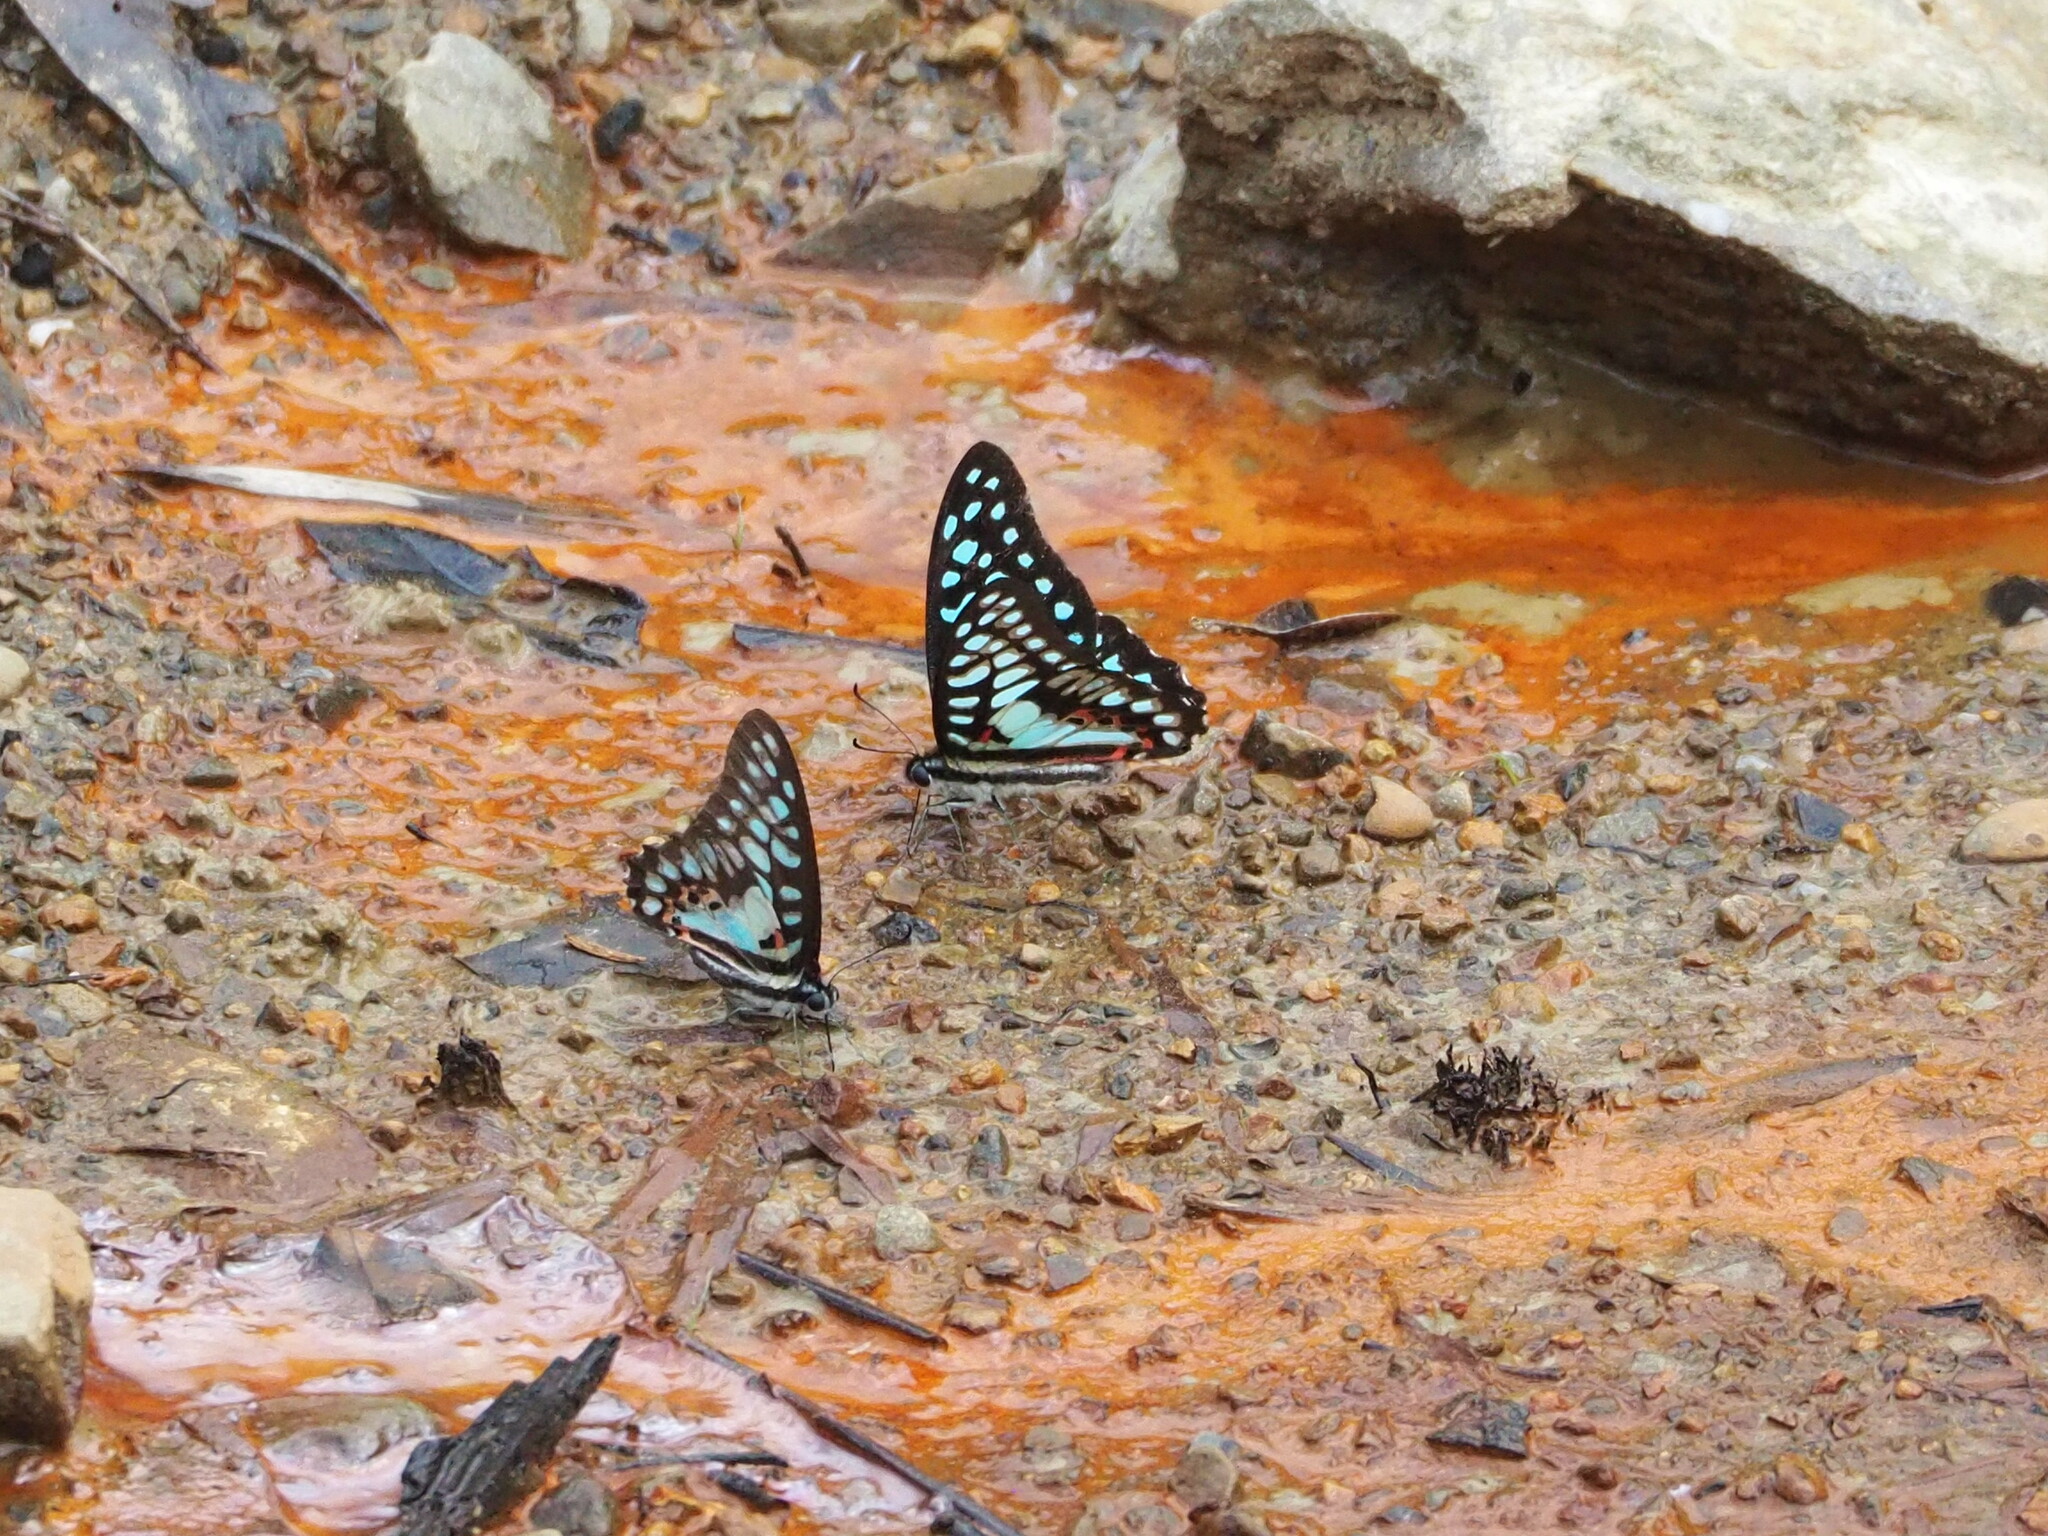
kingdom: Animalia
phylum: Arthropoda
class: Insecta
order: Lepidoptera
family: Papilionidae
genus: Graphium
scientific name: Graphium doson
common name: Common jay
